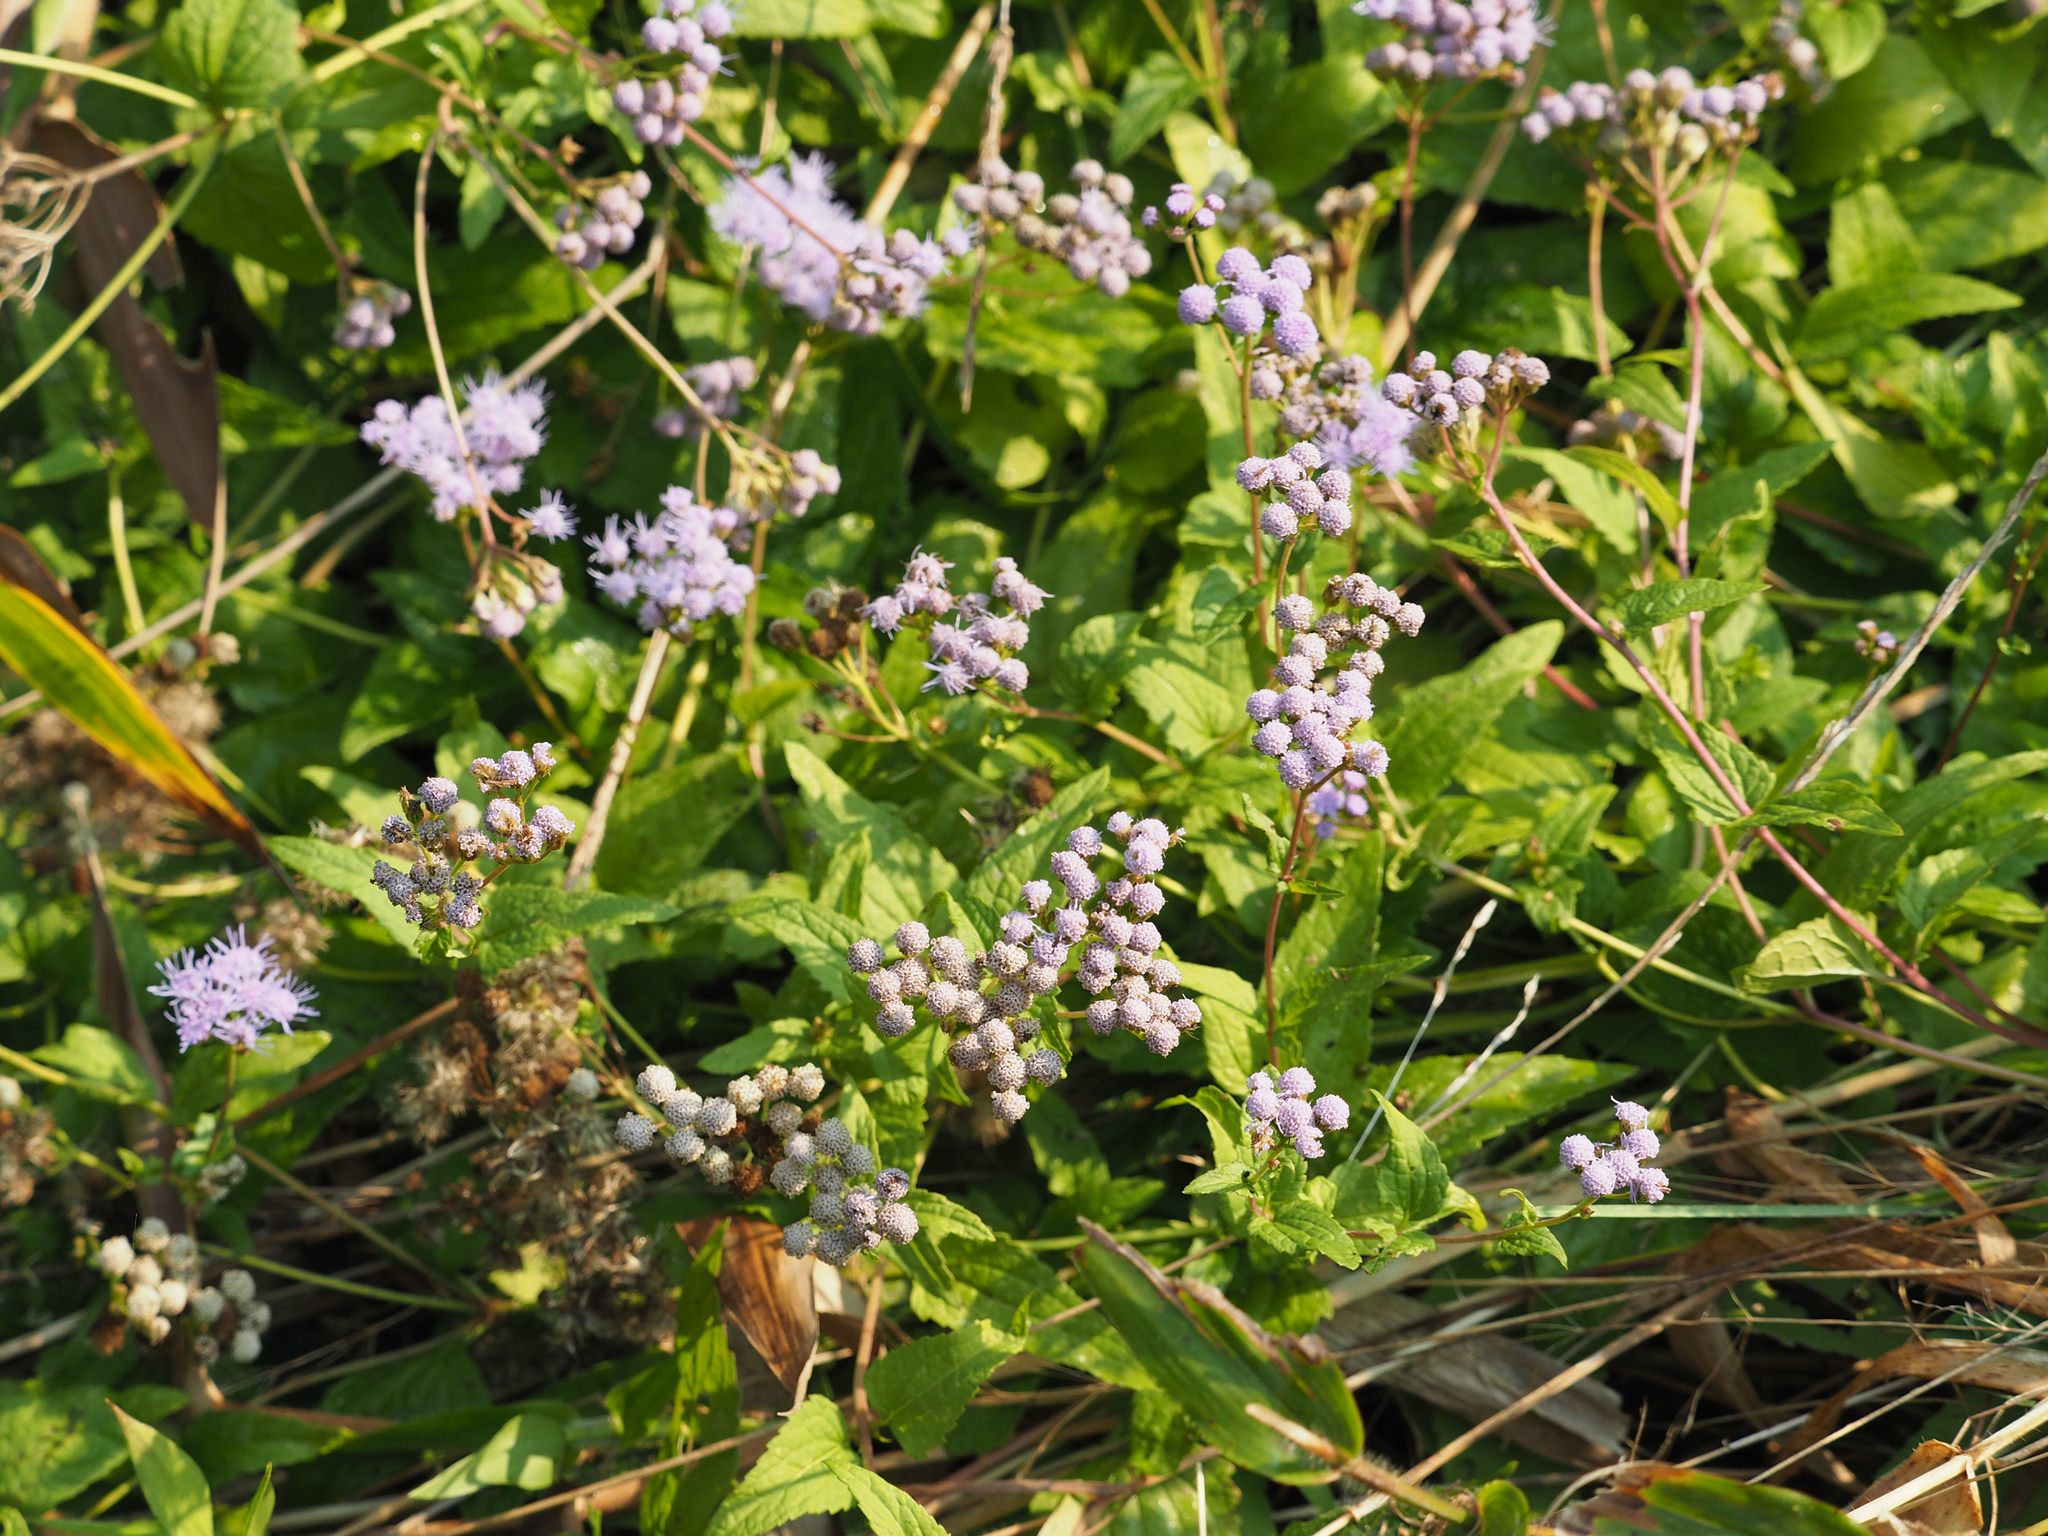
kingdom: Plantae
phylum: Tracheophyta
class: Magnoliopsida
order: Asterales
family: Asteraceae
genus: Conoclinium
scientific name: Conoclinium coelestinum
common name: Blue mistflower
